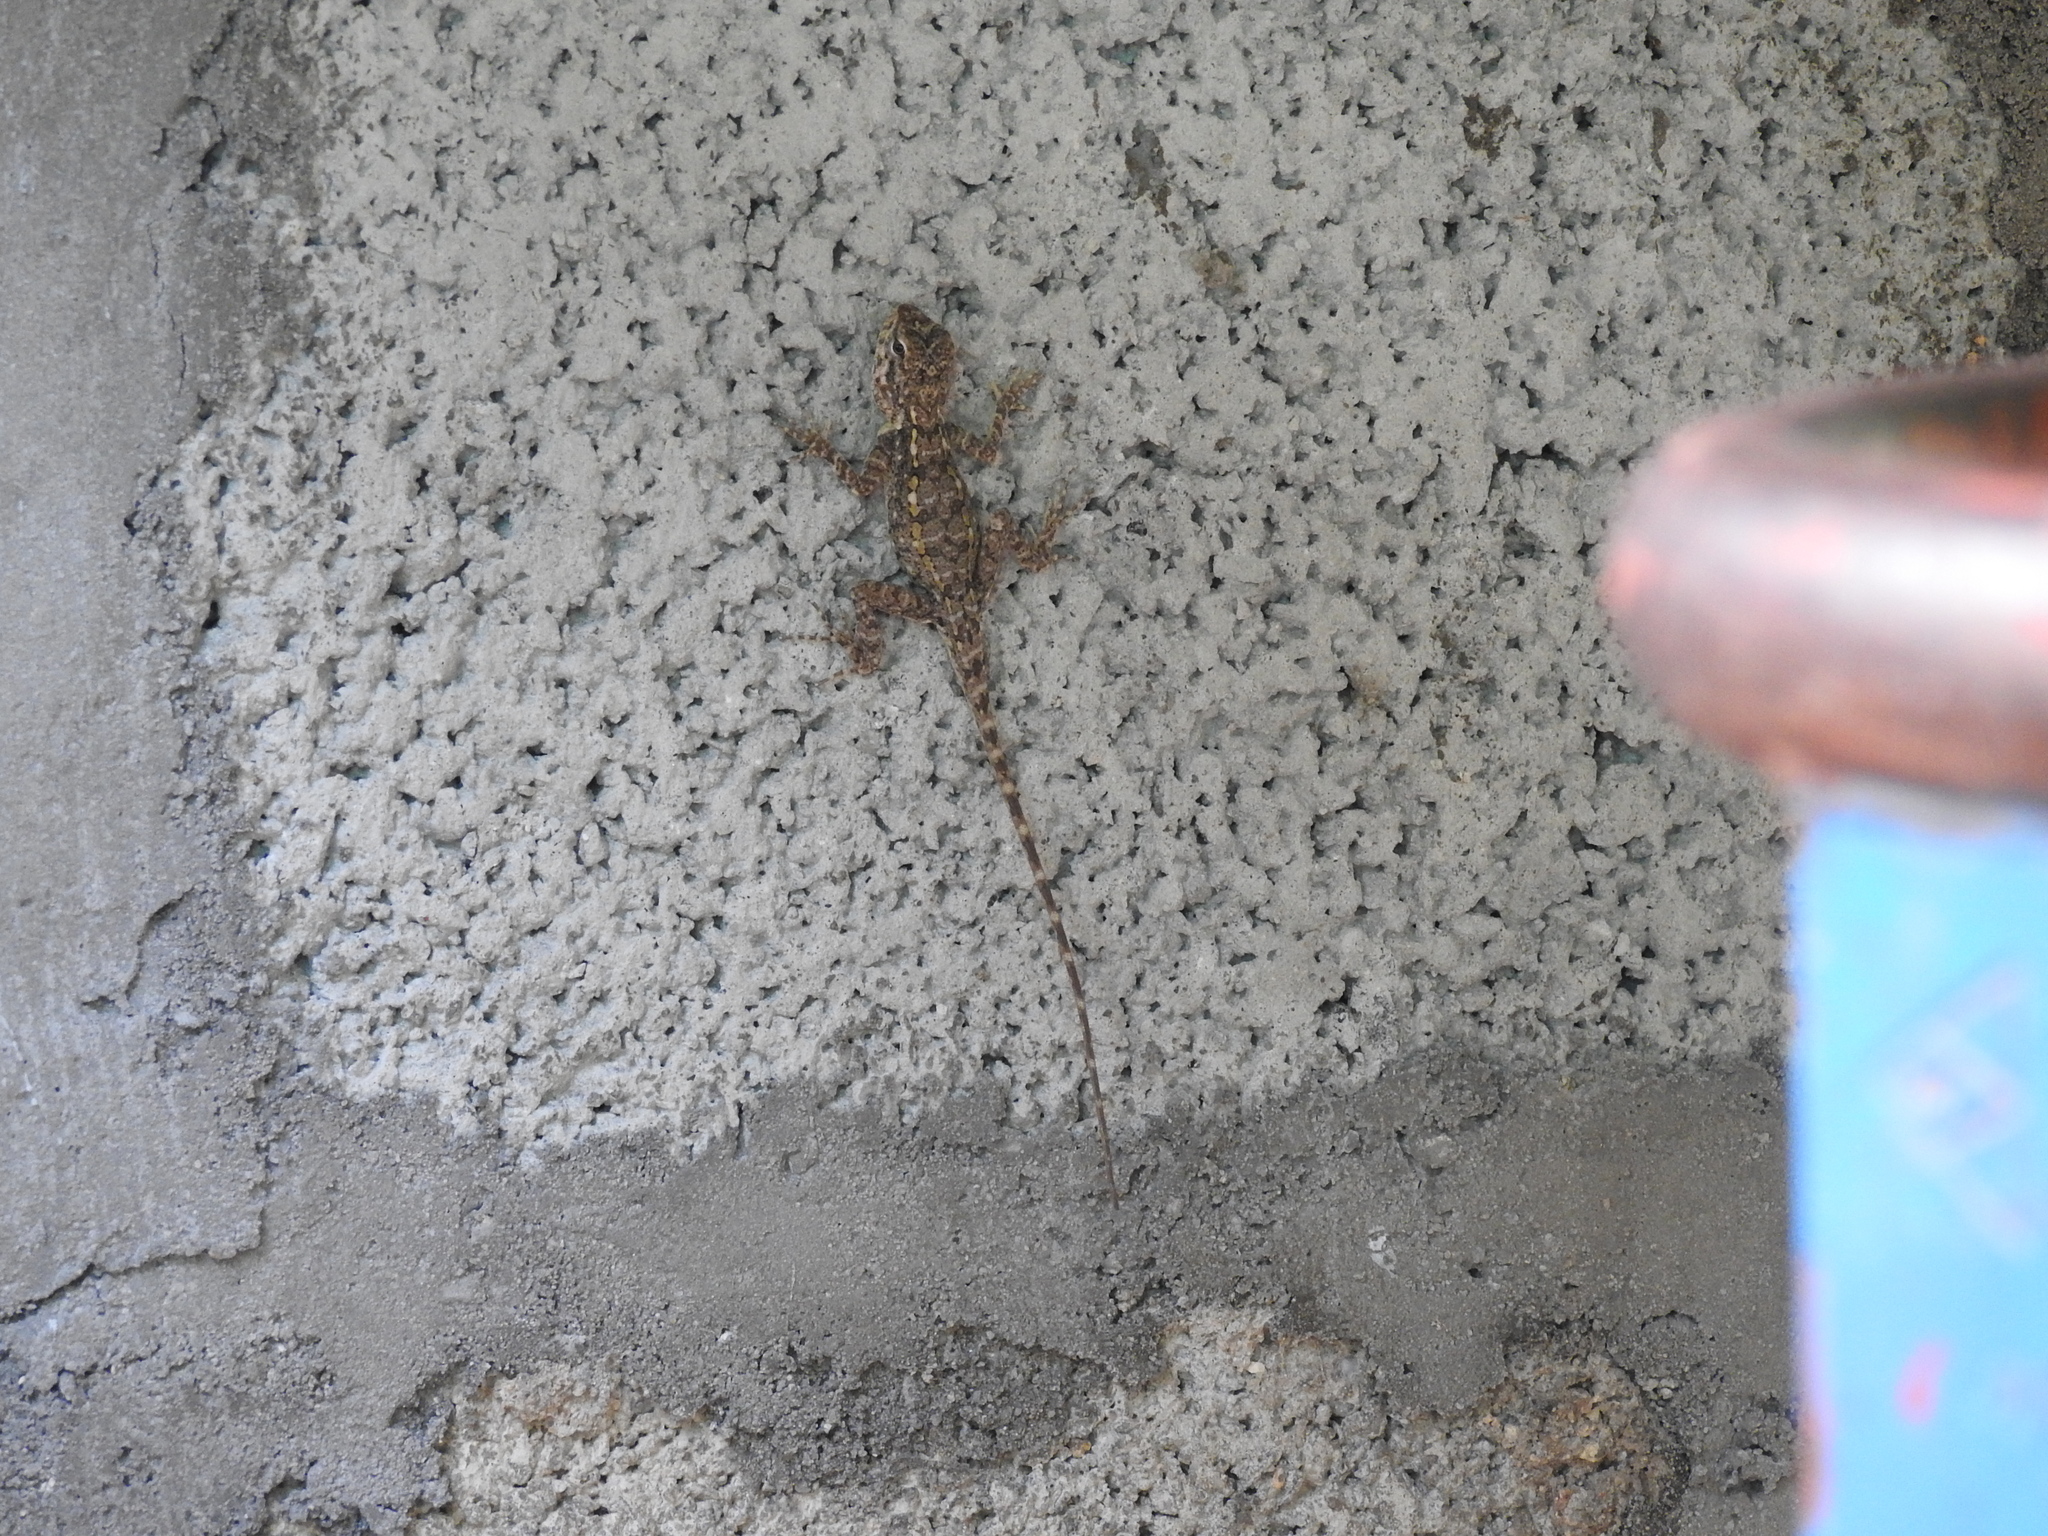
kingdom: Animalia
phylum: Chordata
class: Squamata
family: Agamidae
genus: Psammophilus
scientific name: Psammophilus dorsalis
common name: South indian rock agama
